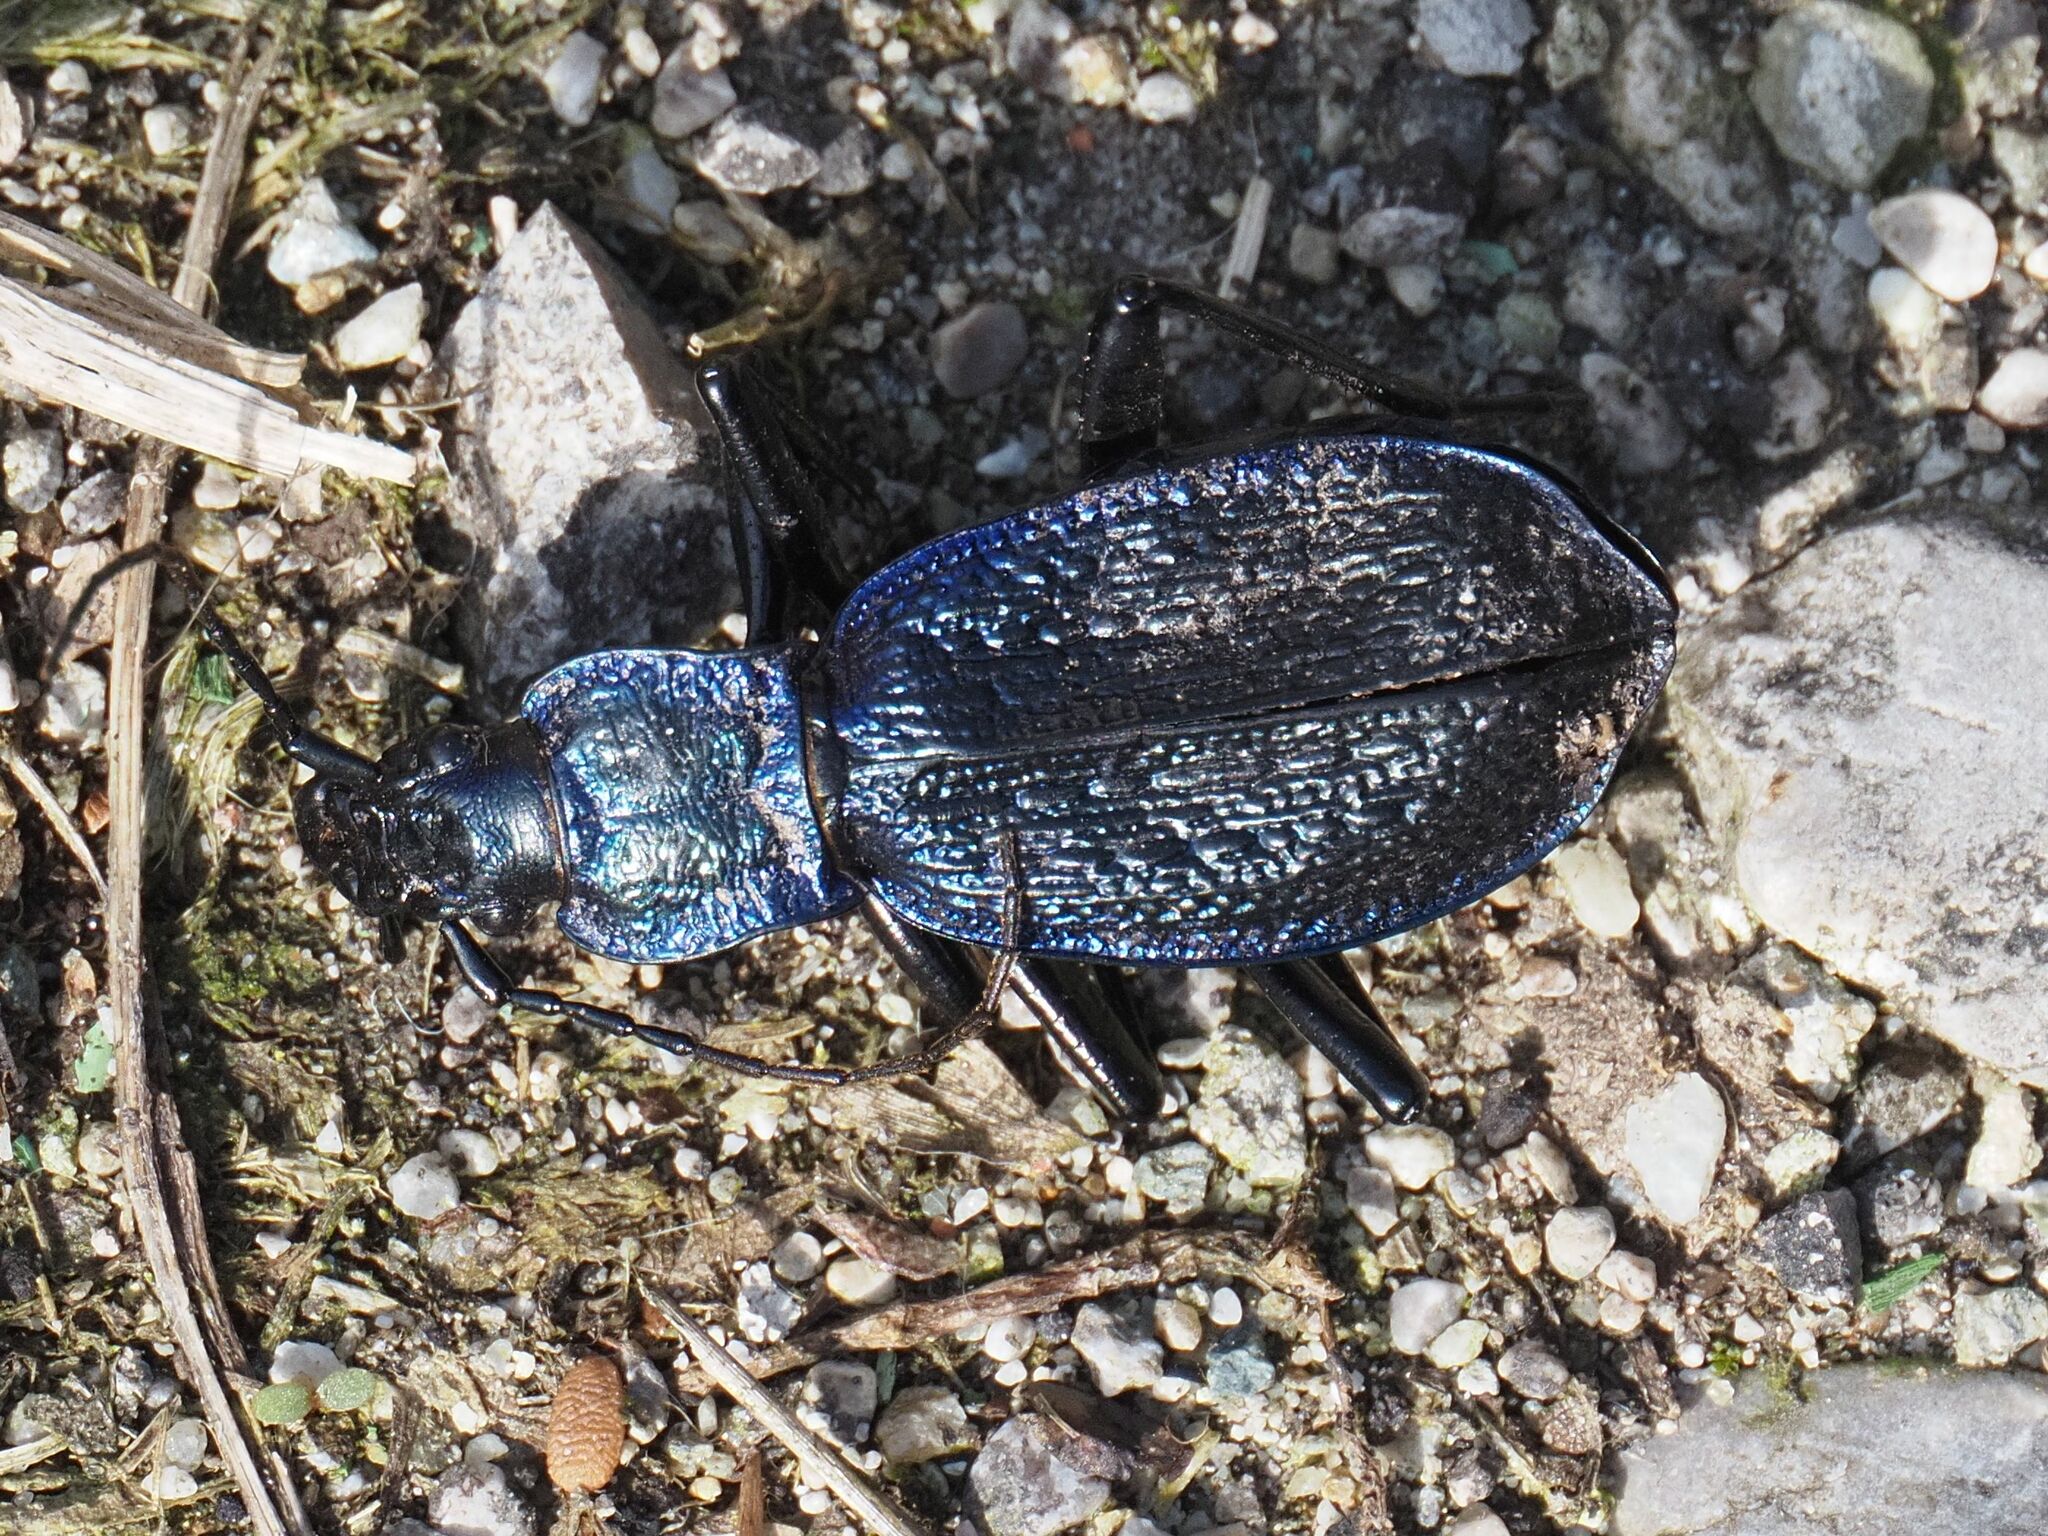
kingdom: Animalia
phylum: Arthropoda
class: Insecta
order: Coleoptera
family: Carabidae
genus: Carabus
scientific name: Carabus intricatus
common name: Blue ground beetle
